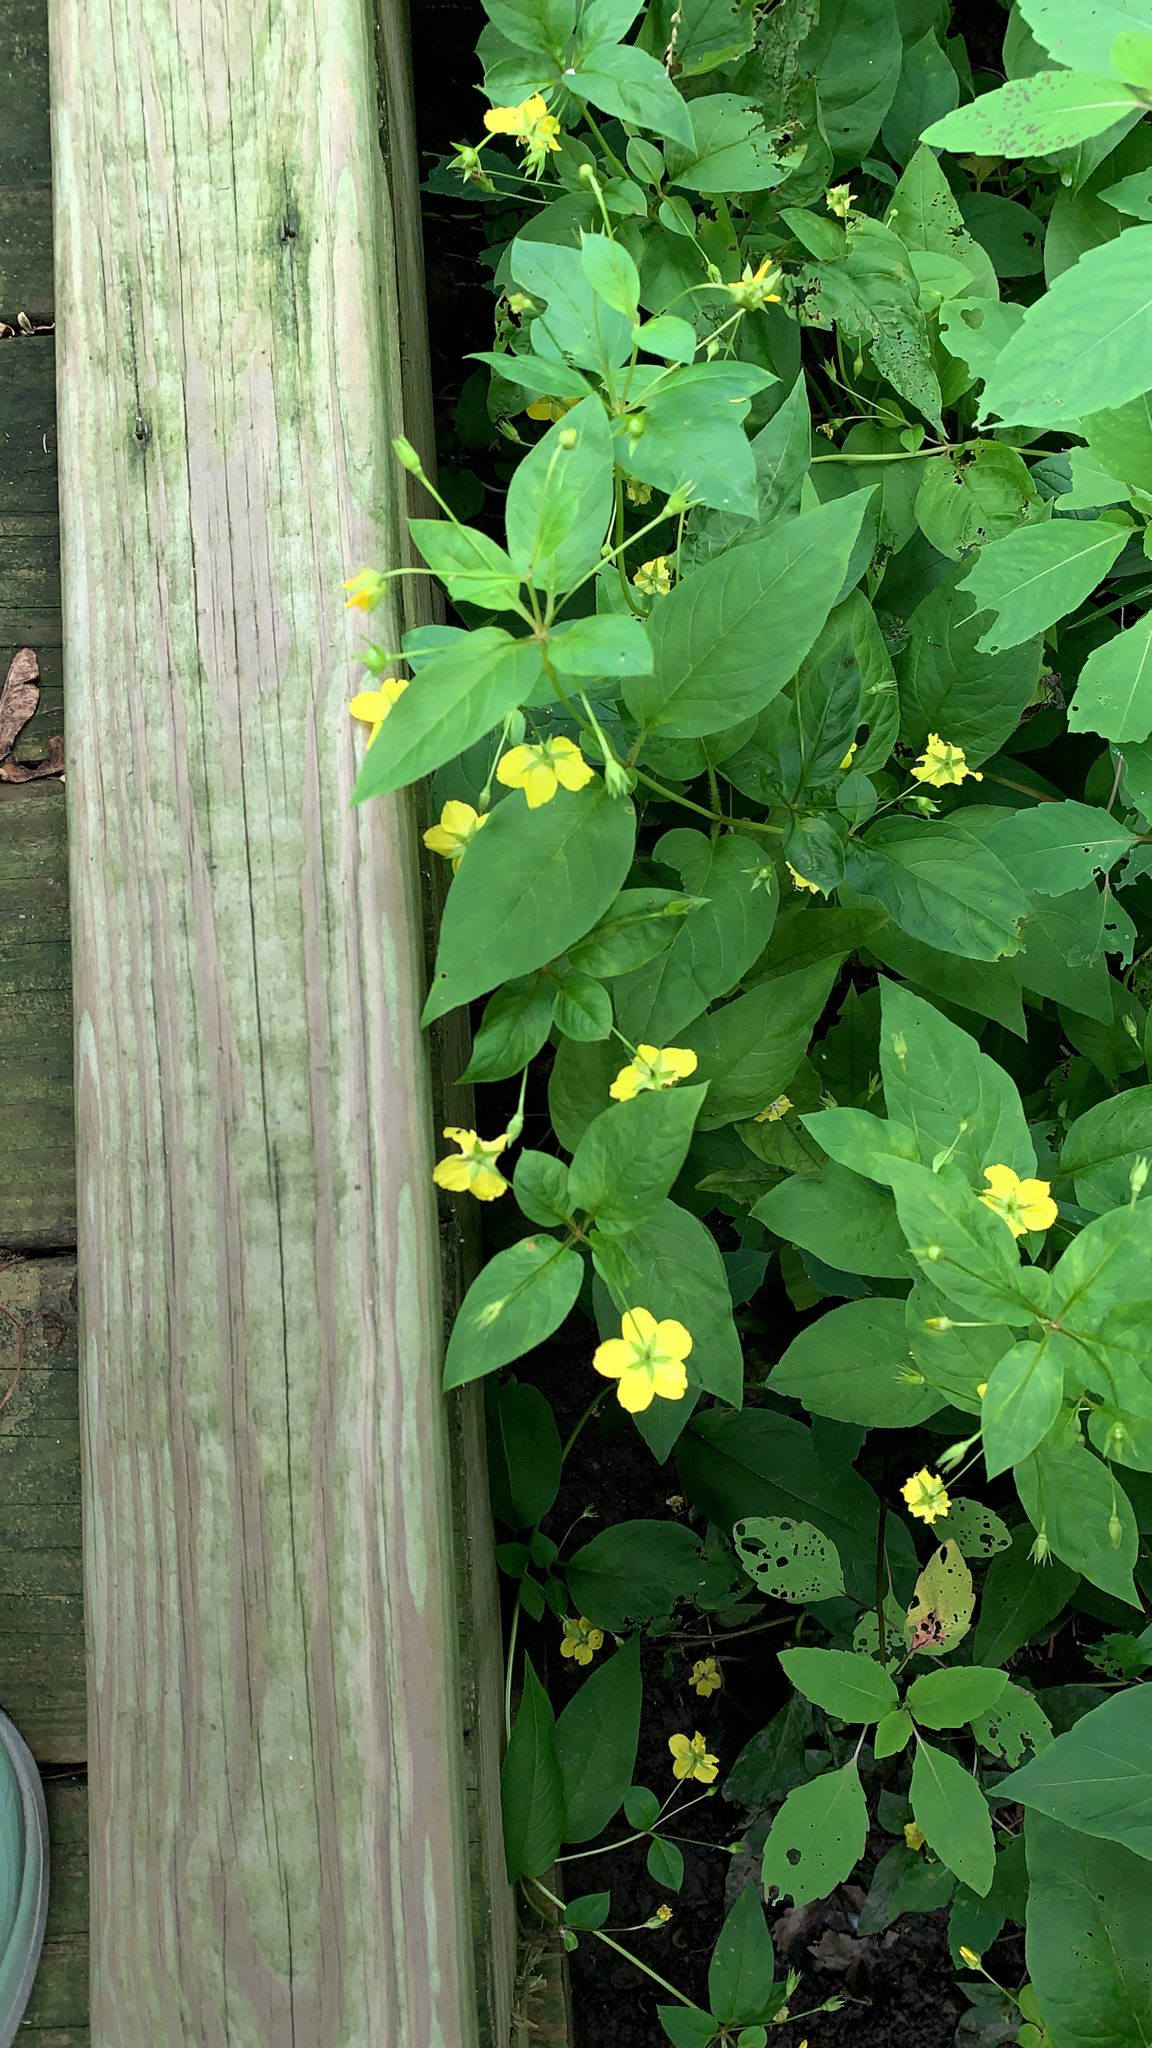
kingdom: Plantae
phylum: Tracheophyta
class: Magnoliopsida
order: Ericales
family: Primulaceae
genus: Lysimachia
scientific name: Lysimachia ciliata
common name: Fringed loosestrife
